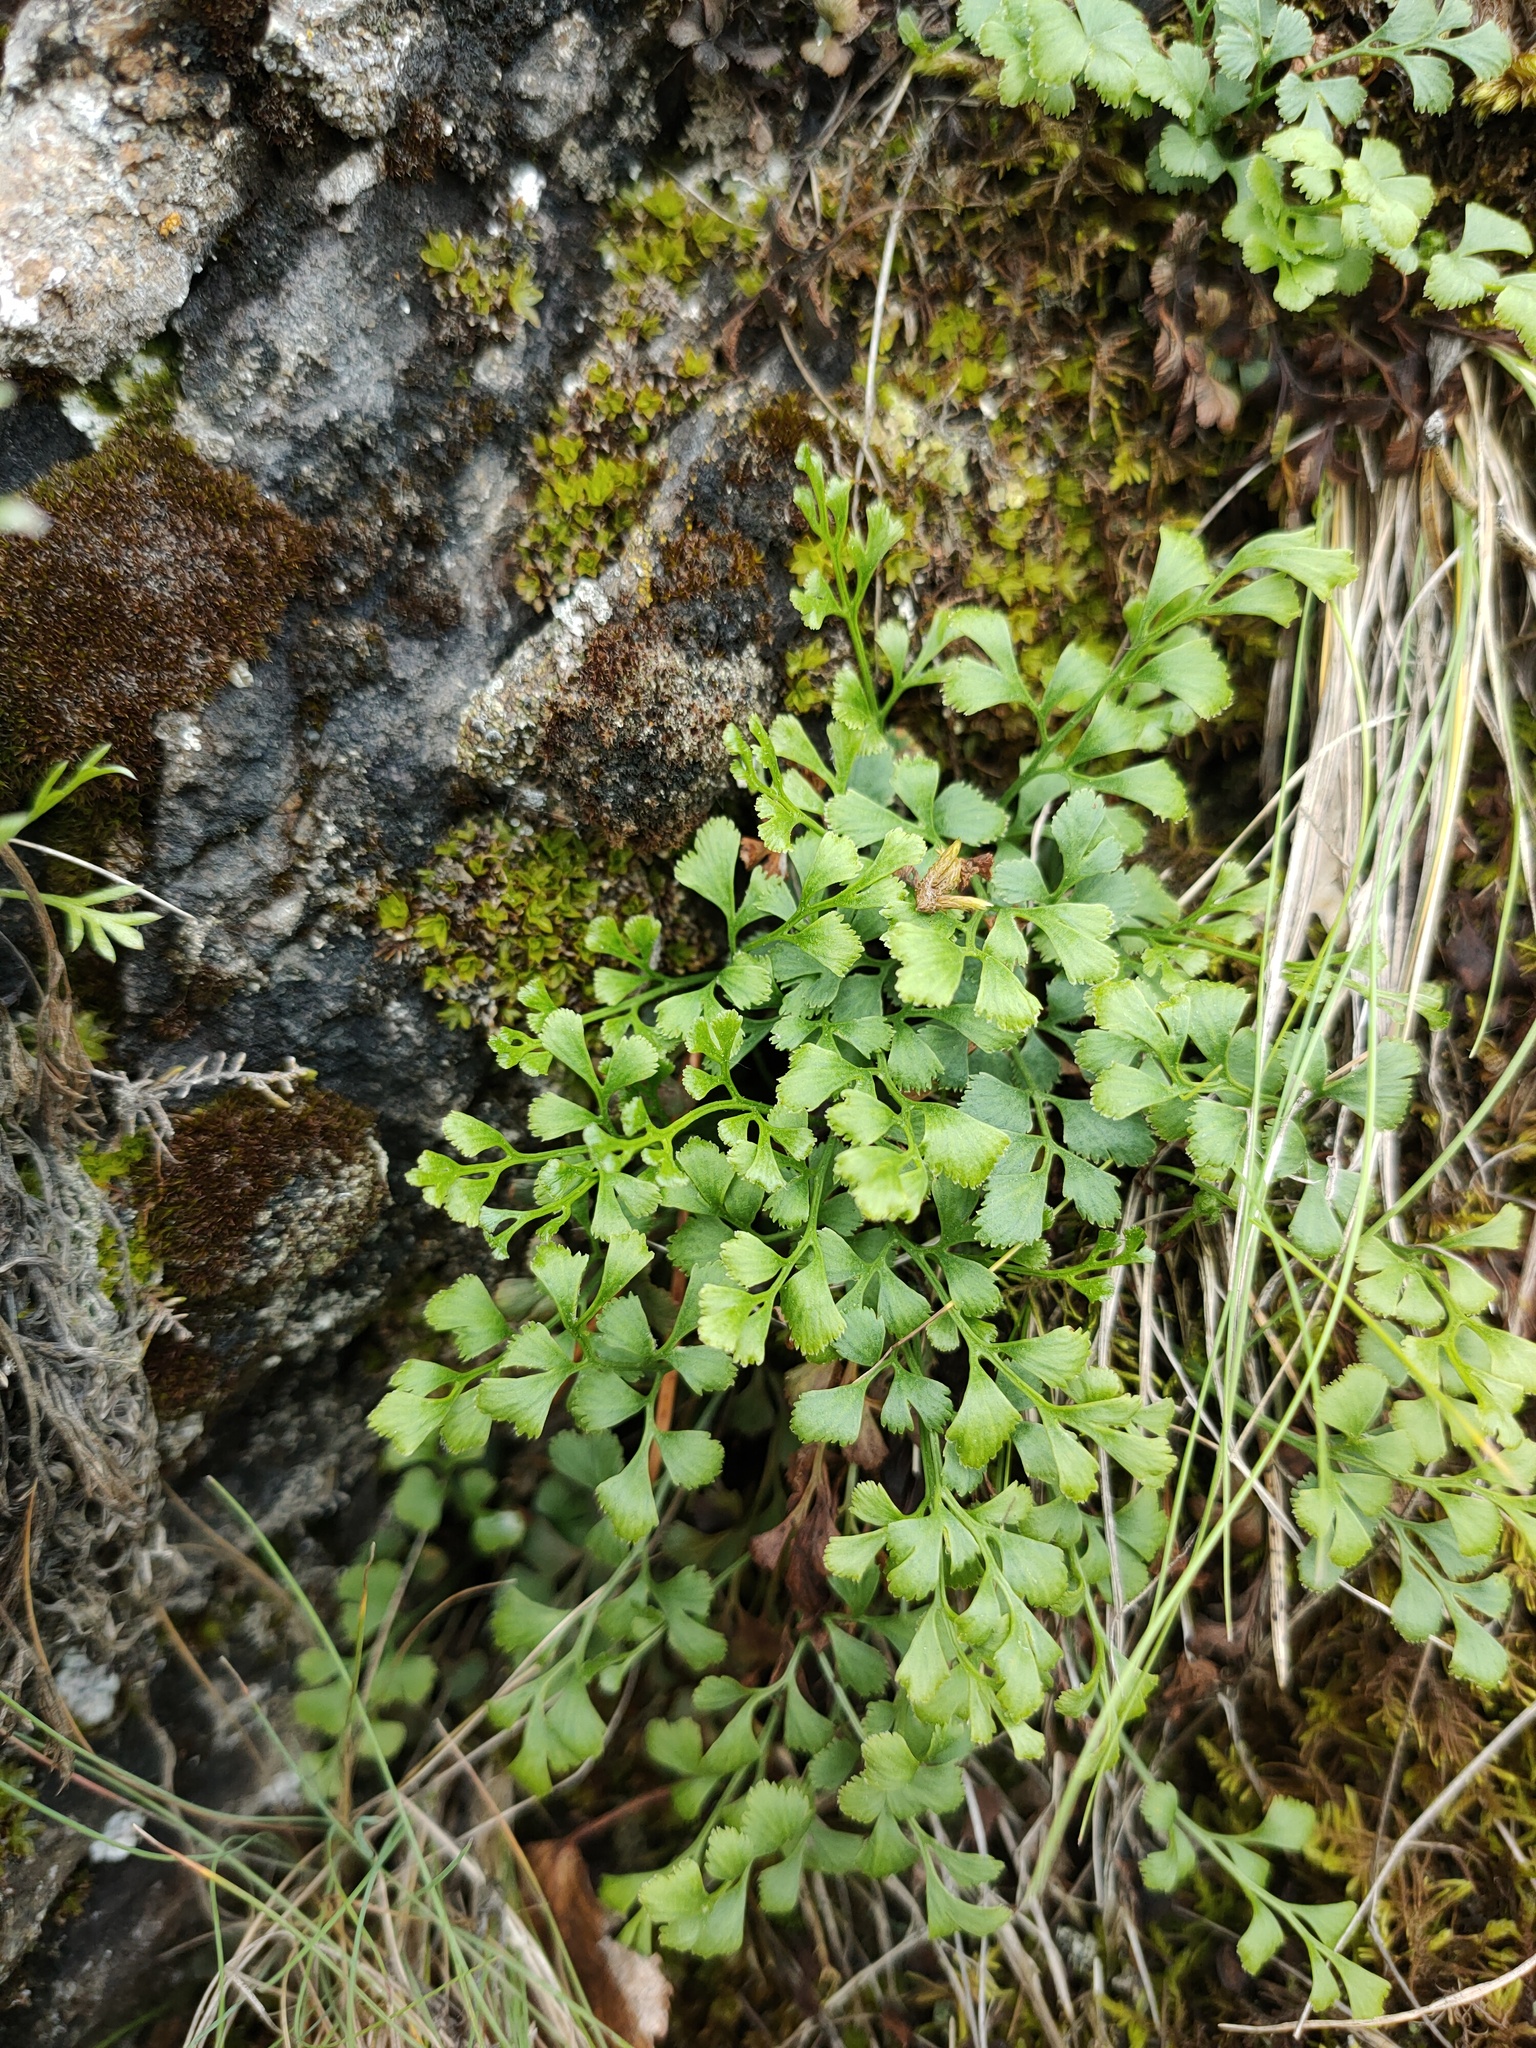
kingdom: Plantae
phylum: Tracheophyta
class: Polypodiopsida
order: Polypodiales
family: Aspleniaceae
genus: Asplenium
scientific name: Asplenium ruta-muraria
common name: Wall-rue
